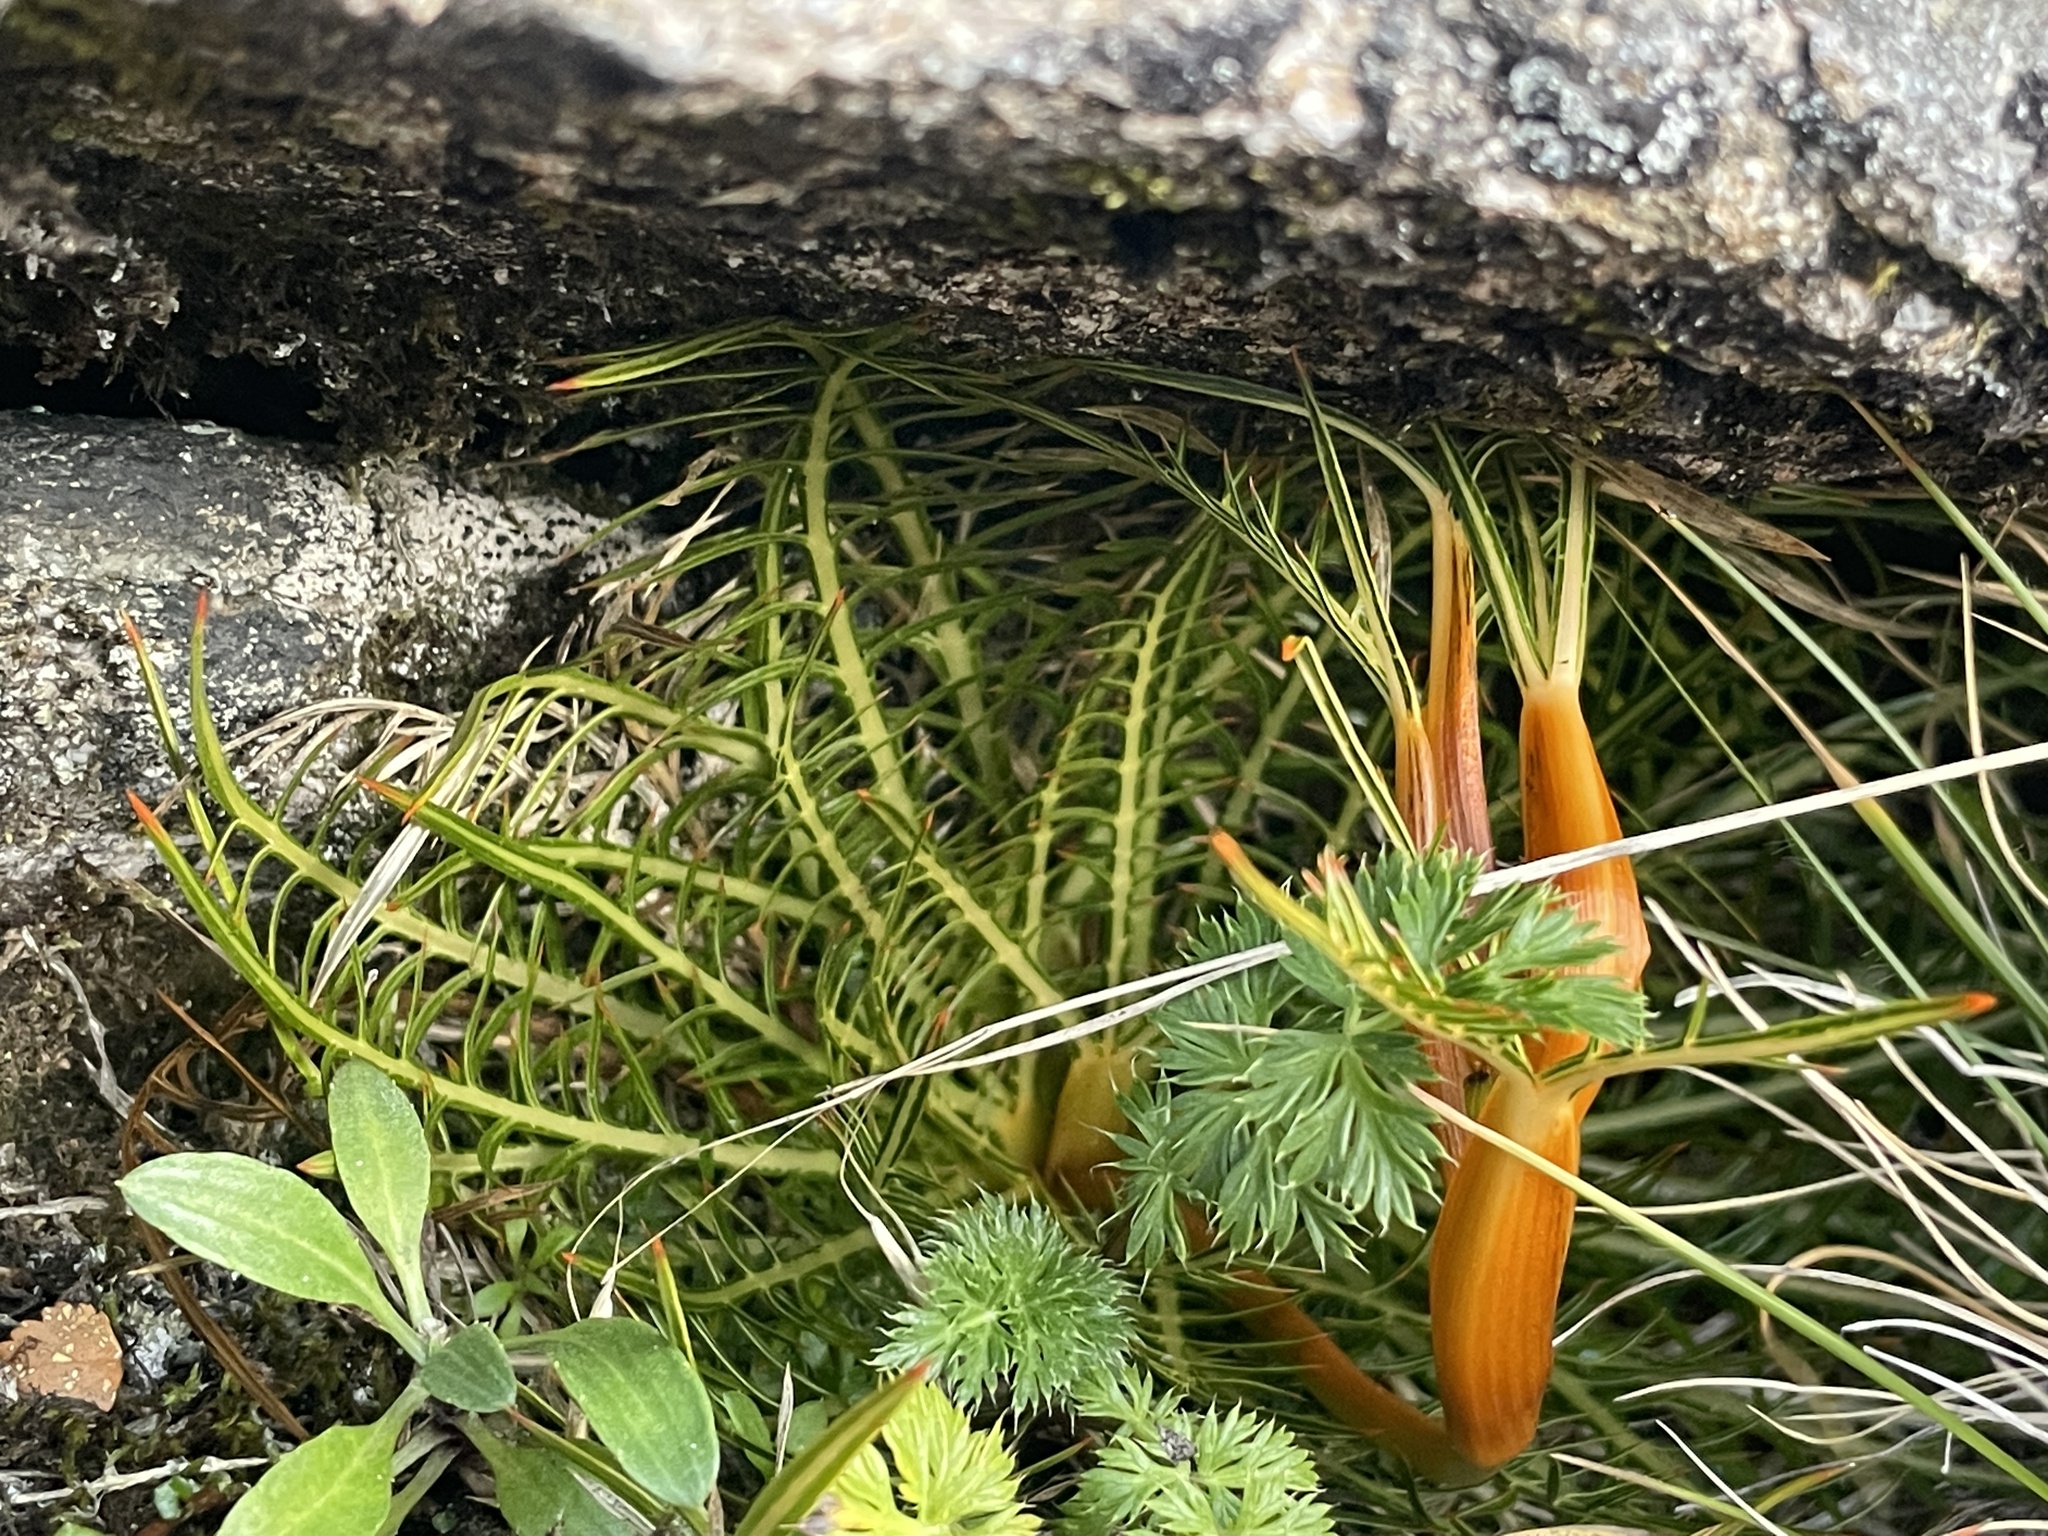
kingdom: Plantae
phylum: Tracheophyta
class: Magnoliopsida
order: Apiales
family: Apiaceae
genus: Aciphylla
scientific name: Aciphylla pinnatifida
